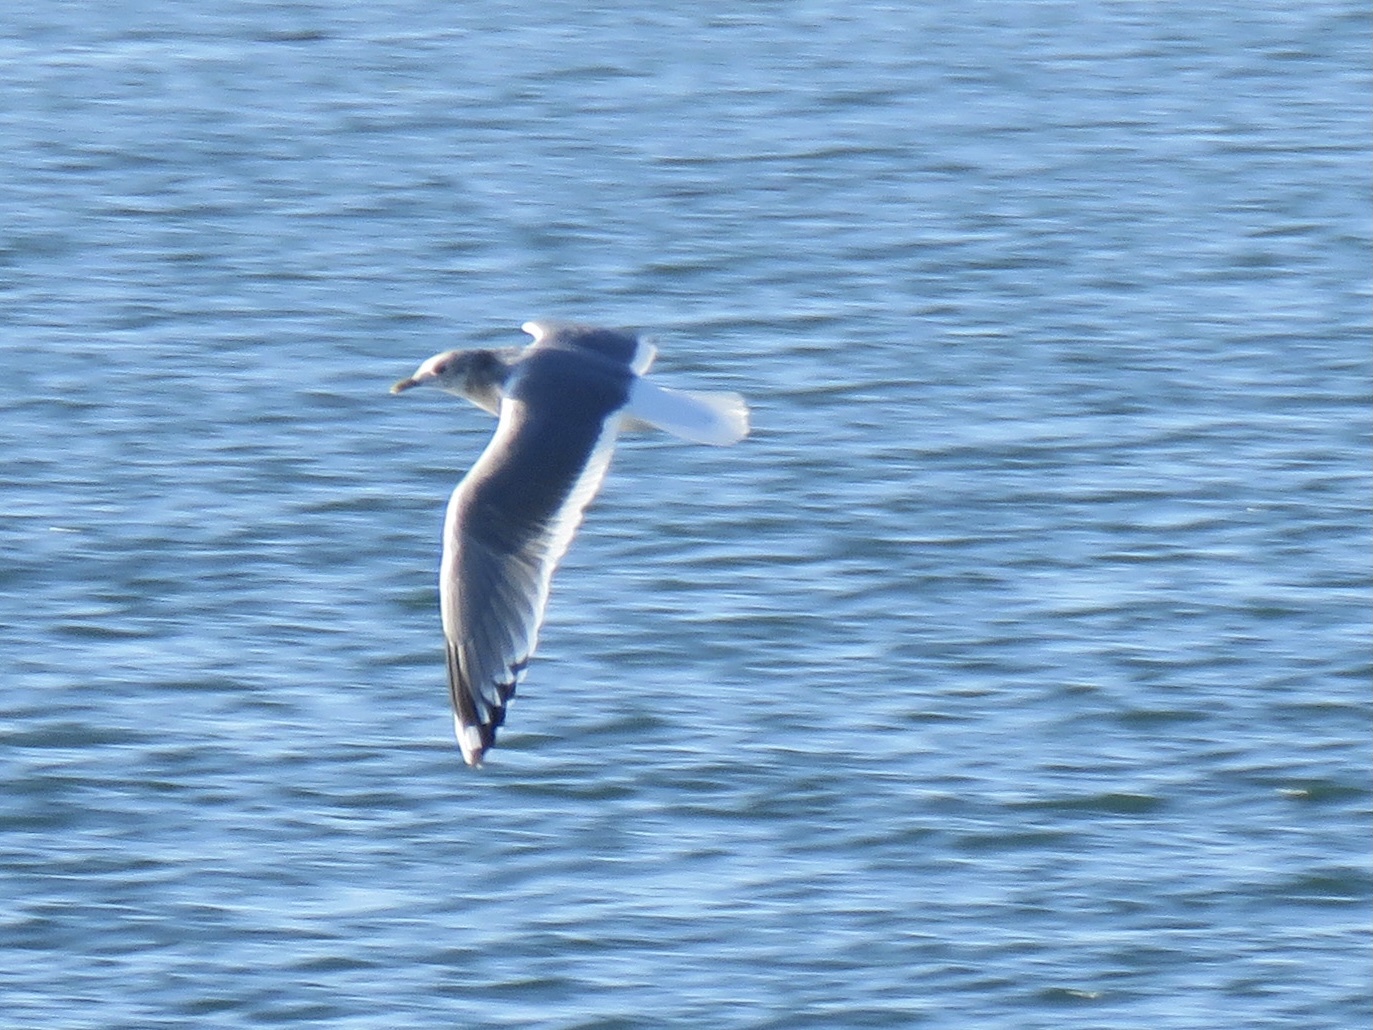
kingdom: Animalia
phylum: Chordata
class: Aves
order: Charadriiformes
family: Laridae
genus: Larus
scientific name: Larus brachyrhynchus
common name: Short-billed gull
